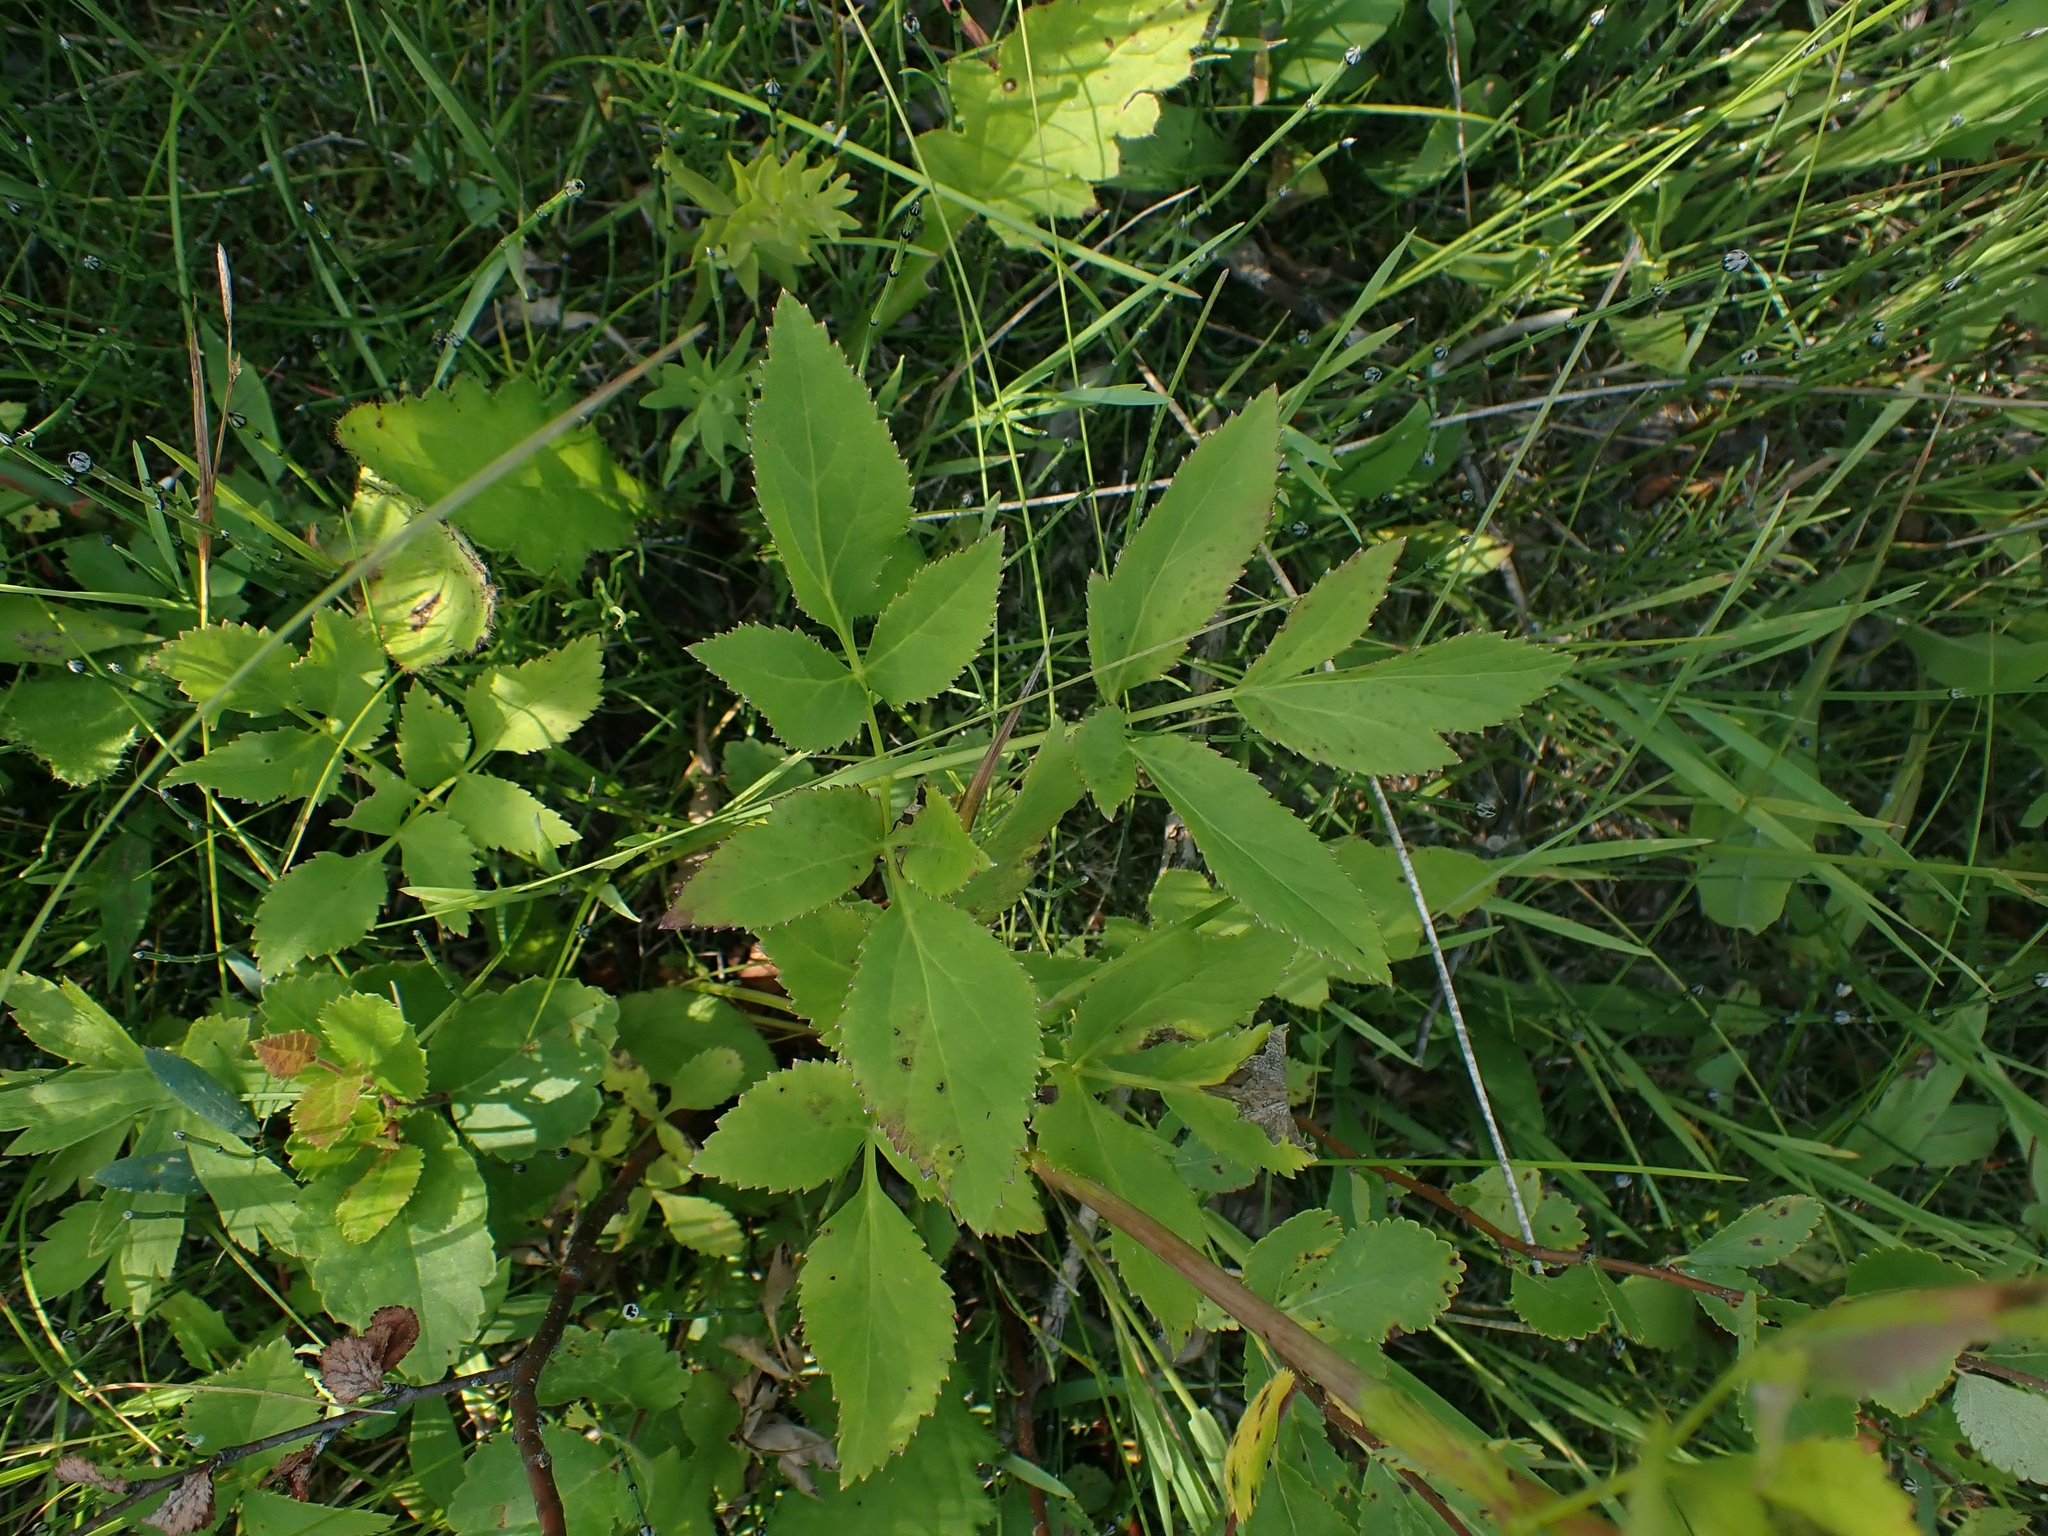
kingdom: Plantae
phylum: Tracheophyta
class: Magnoliopsida
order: Apiales
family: Apiaceae
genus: Zizia
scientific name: Zizia aurea
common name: Golden alexanders
